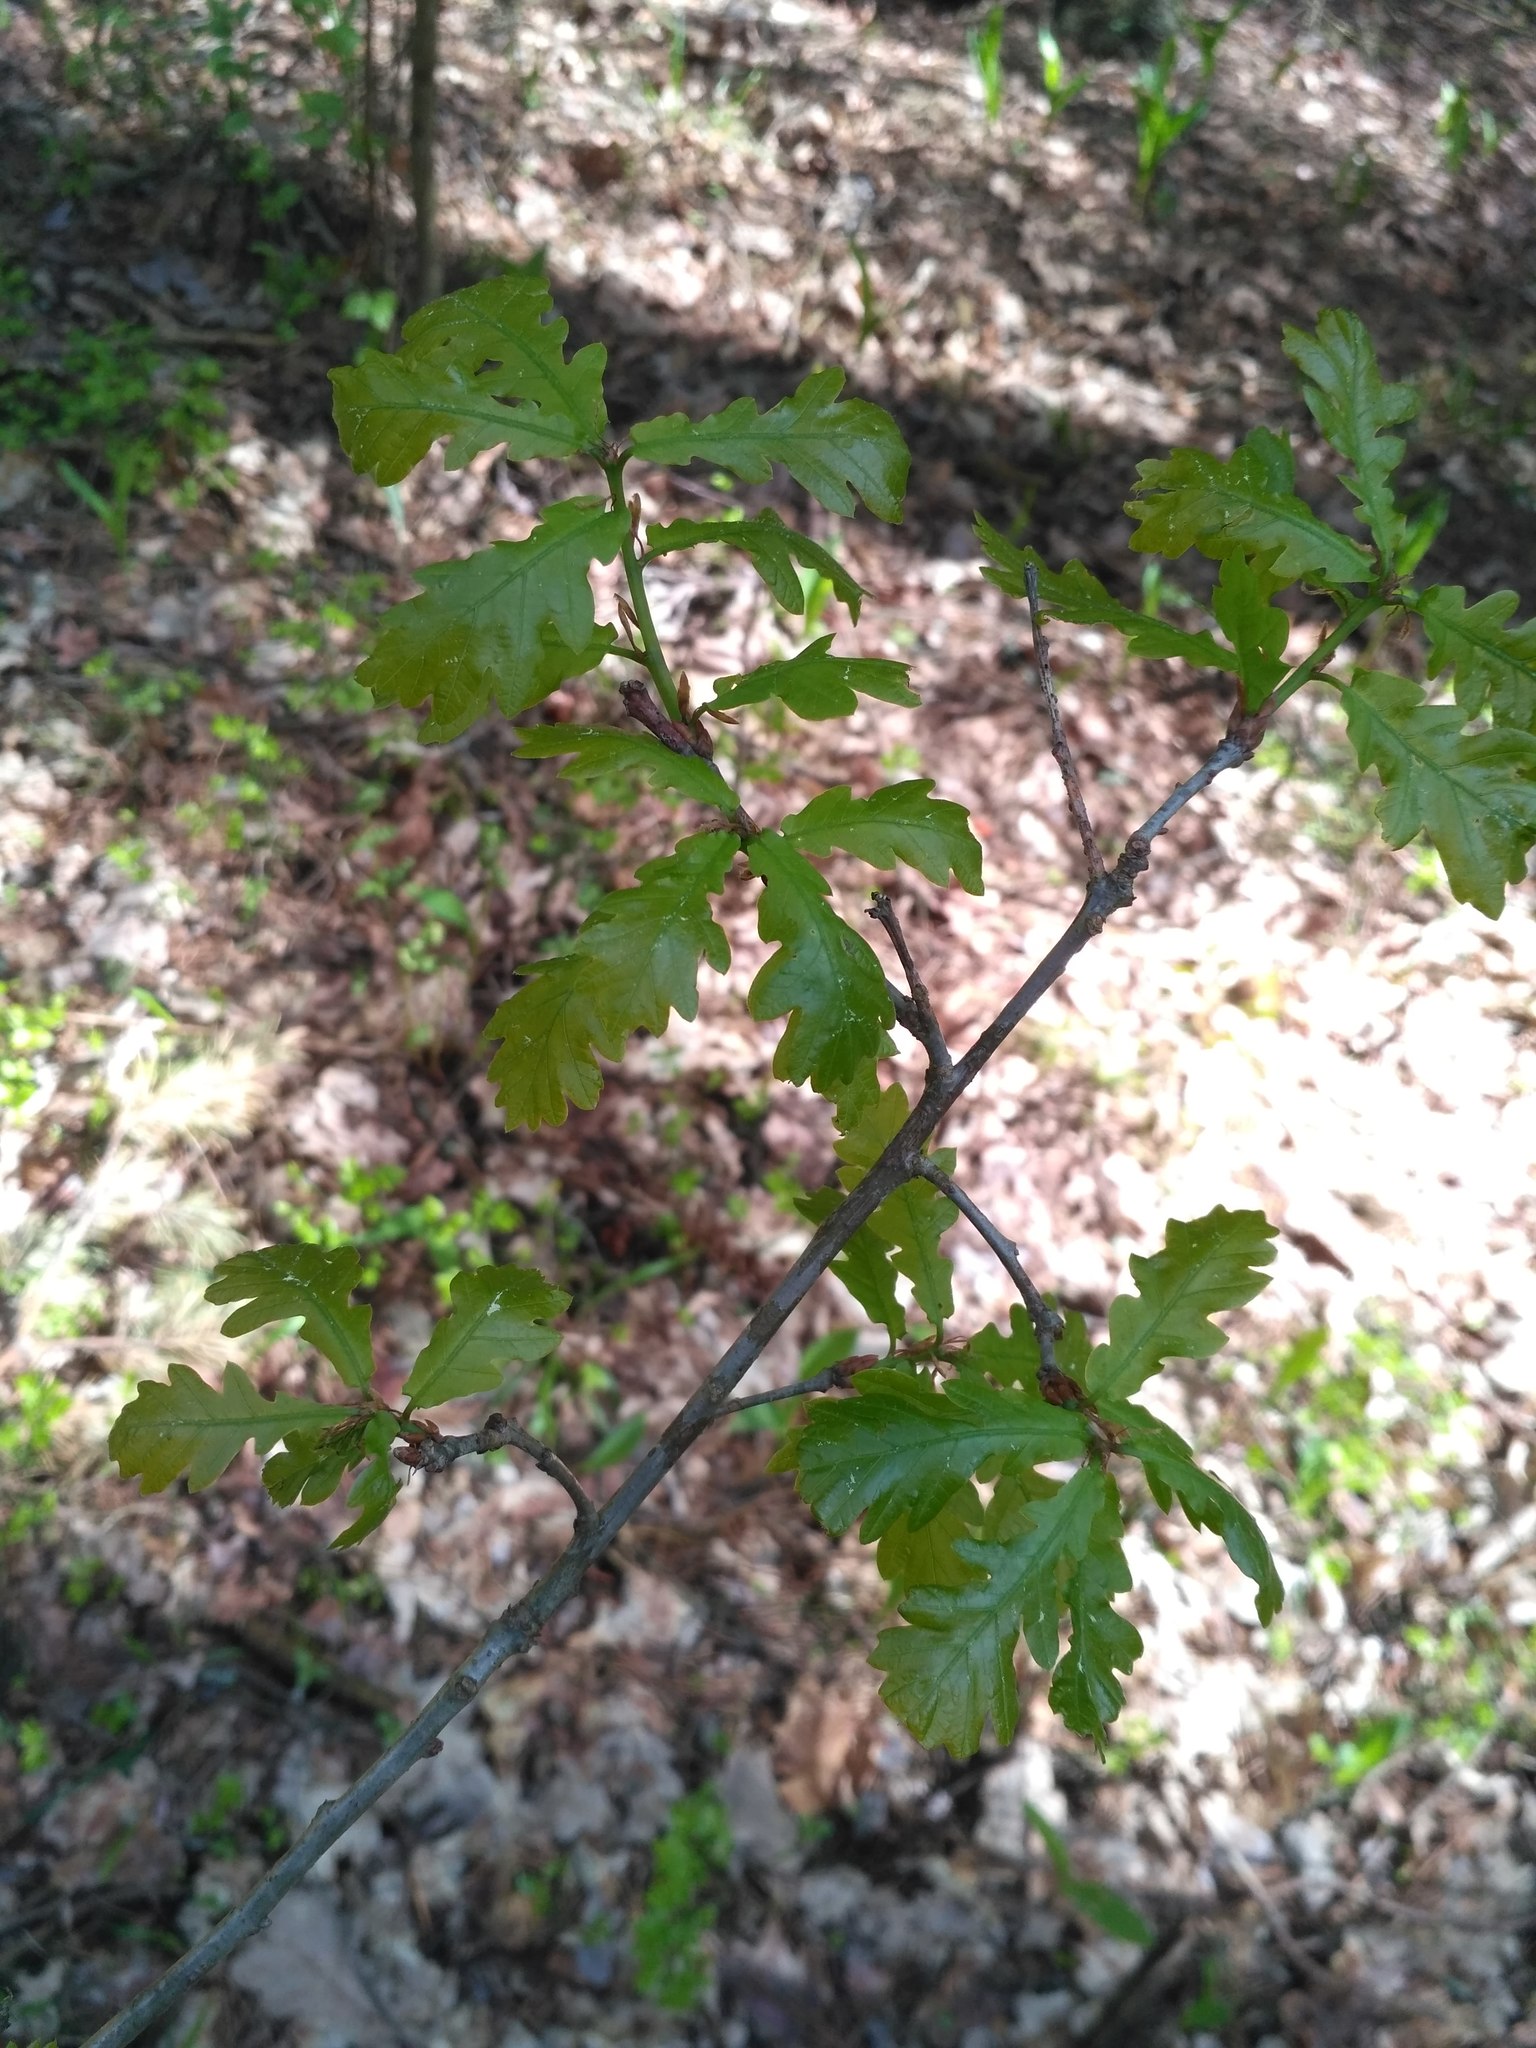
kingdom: Plantae
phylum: Tracheophyta
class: Magnoliopsida
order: Fagales
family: Fagaceae
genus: Quercus
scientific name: Quercus robur
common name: Pedunculate oak
